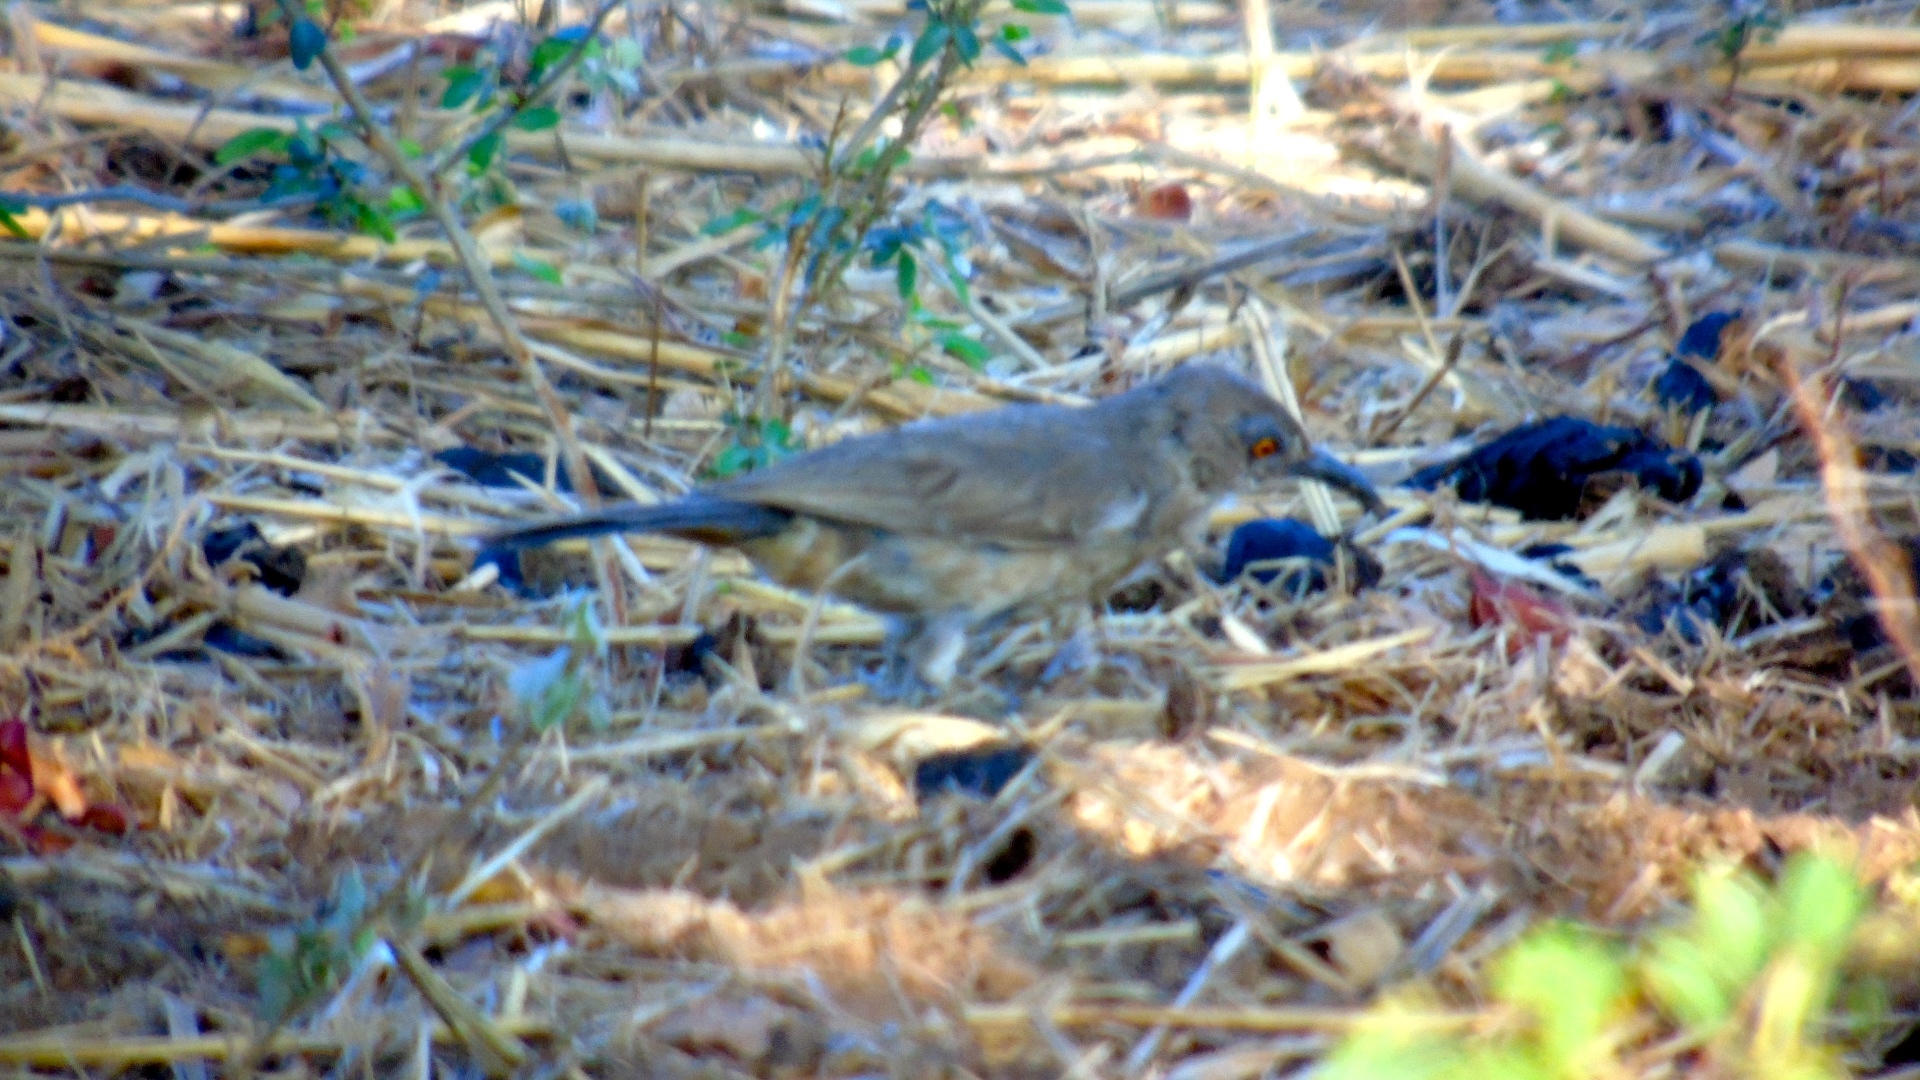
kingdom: Animalia
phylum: Chordata
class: Aves
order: Passeriformes
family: Mimidae
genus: Toxostoma
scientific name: Toxostoma curvirostre
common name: Curve-billed thrasher
